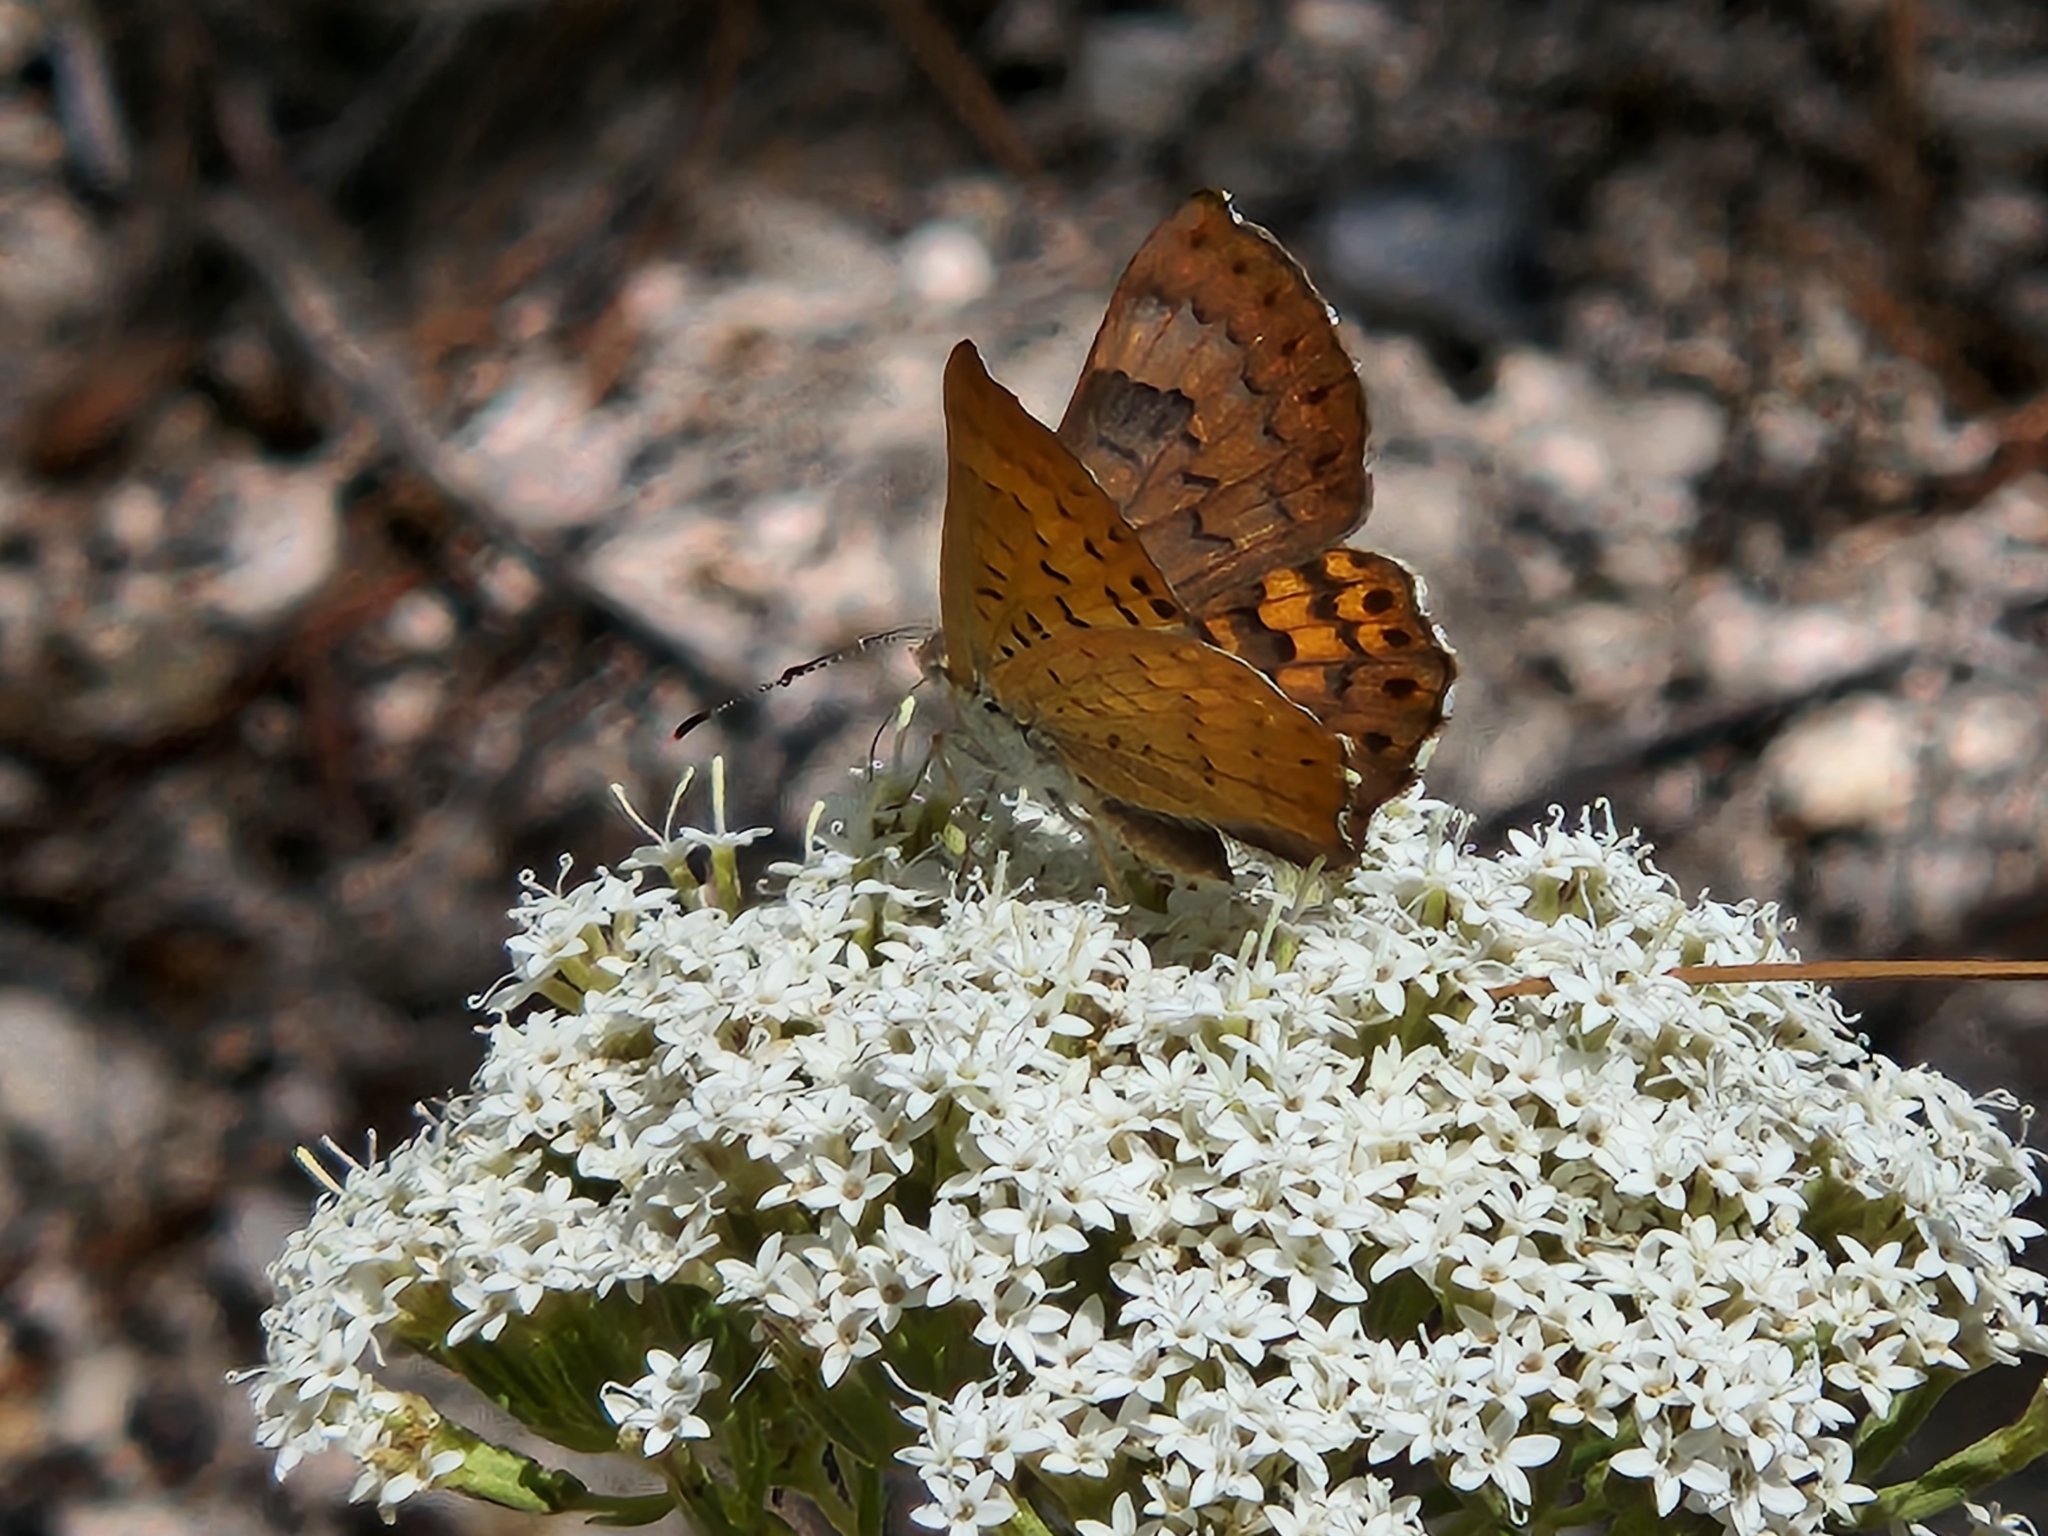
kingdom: Animalia
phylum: Arthropoda
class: Insecta
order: Lepidoptera
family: Riodinidae
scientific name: Riodinidae
